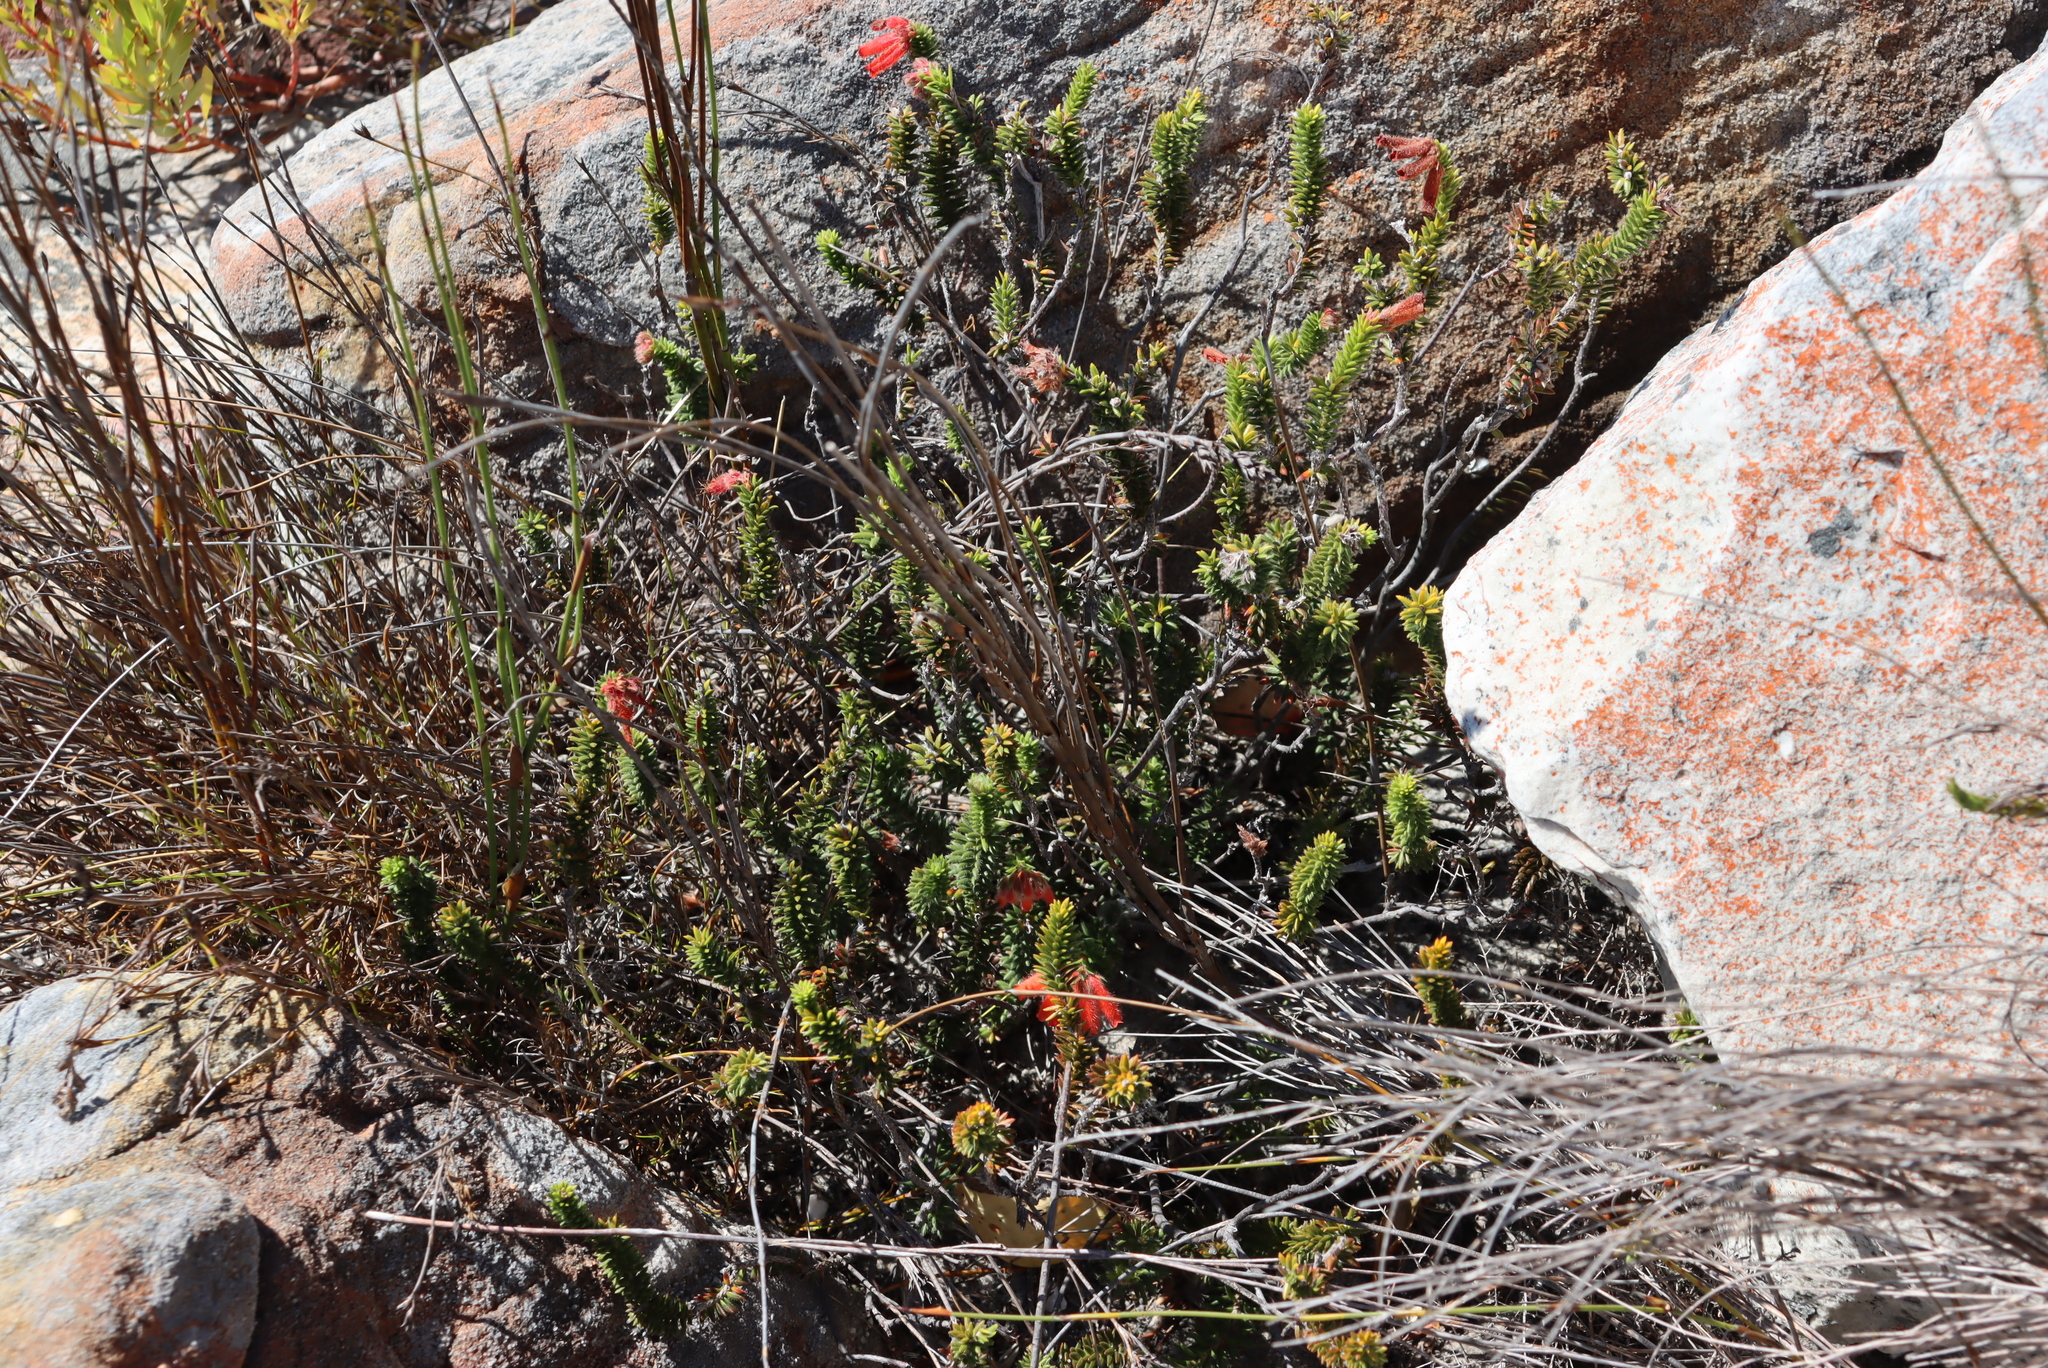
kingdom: Plantae
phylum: Tracheophyta
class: Magnoliopsida
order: Ericales
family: Ericaceae
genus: Erica
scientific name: Erica cerinthoides
